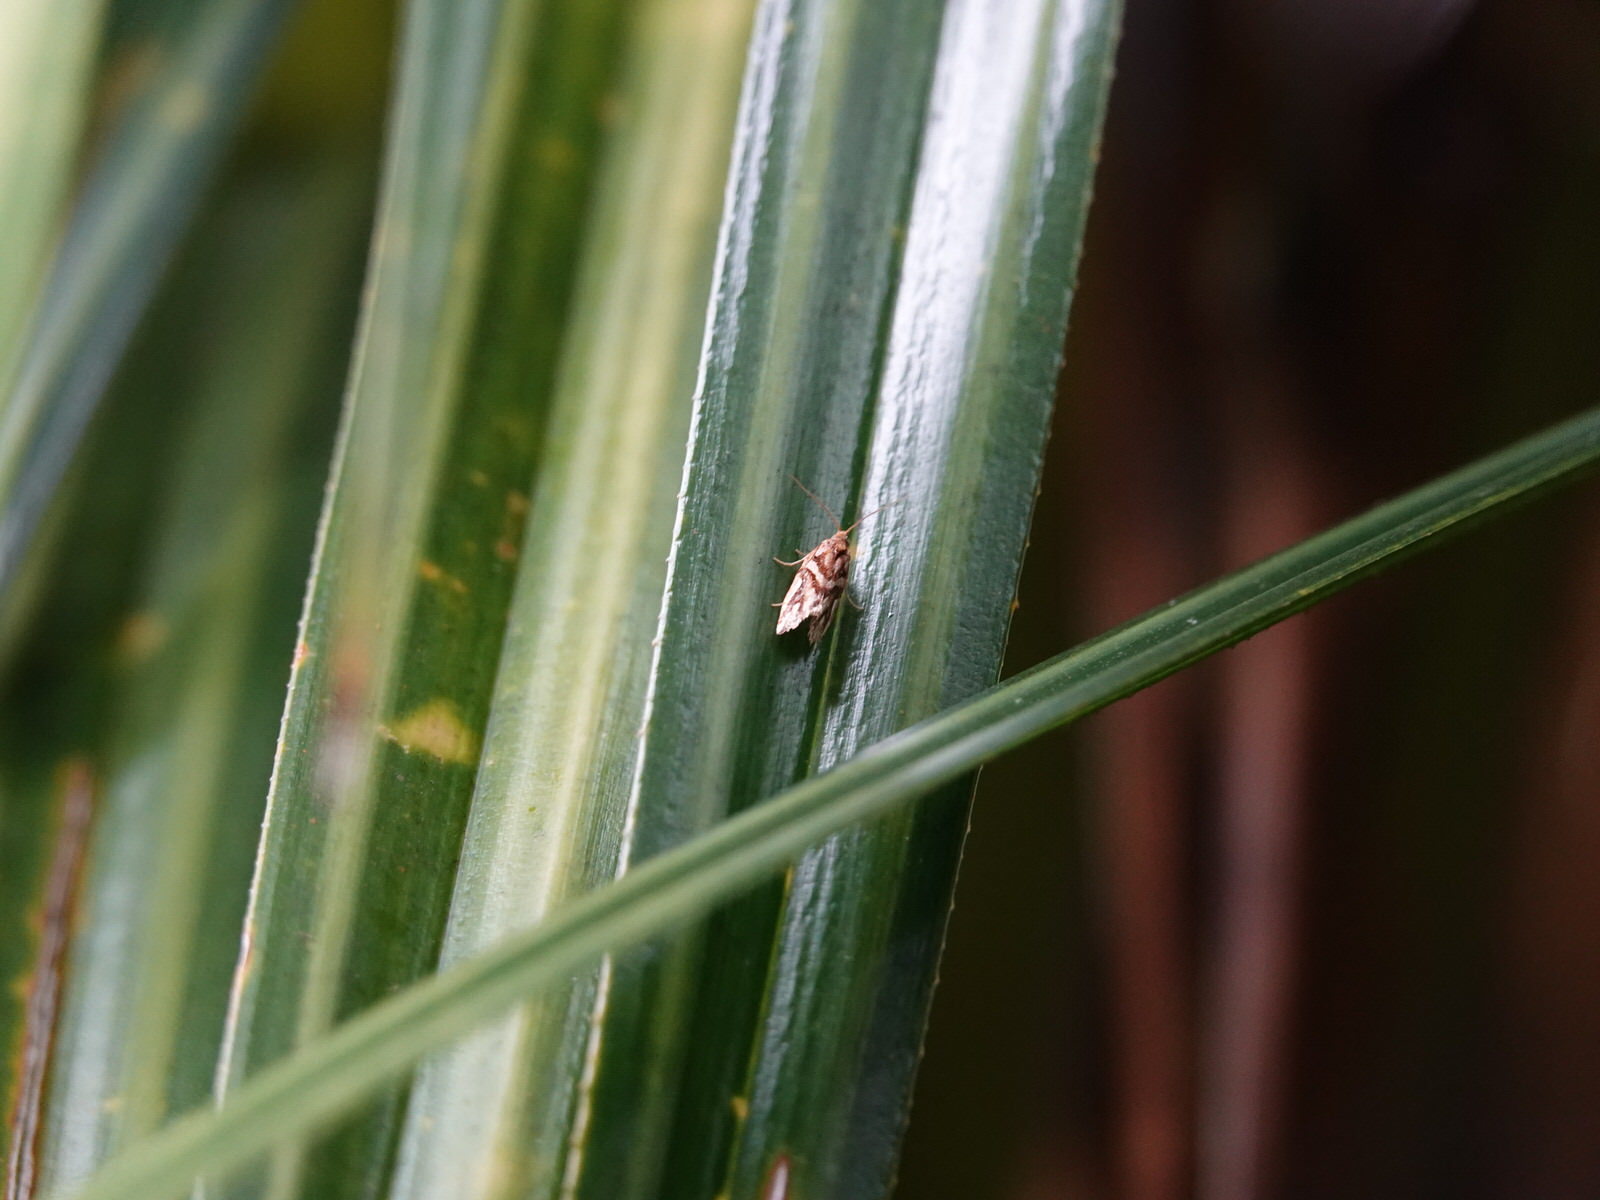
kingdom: Animalia
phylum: Arthropoda
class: Insecta
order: Lepidoptera
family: Tortricidae
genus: Pyrgotis
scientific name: Pyrgotis plinthoglypta
